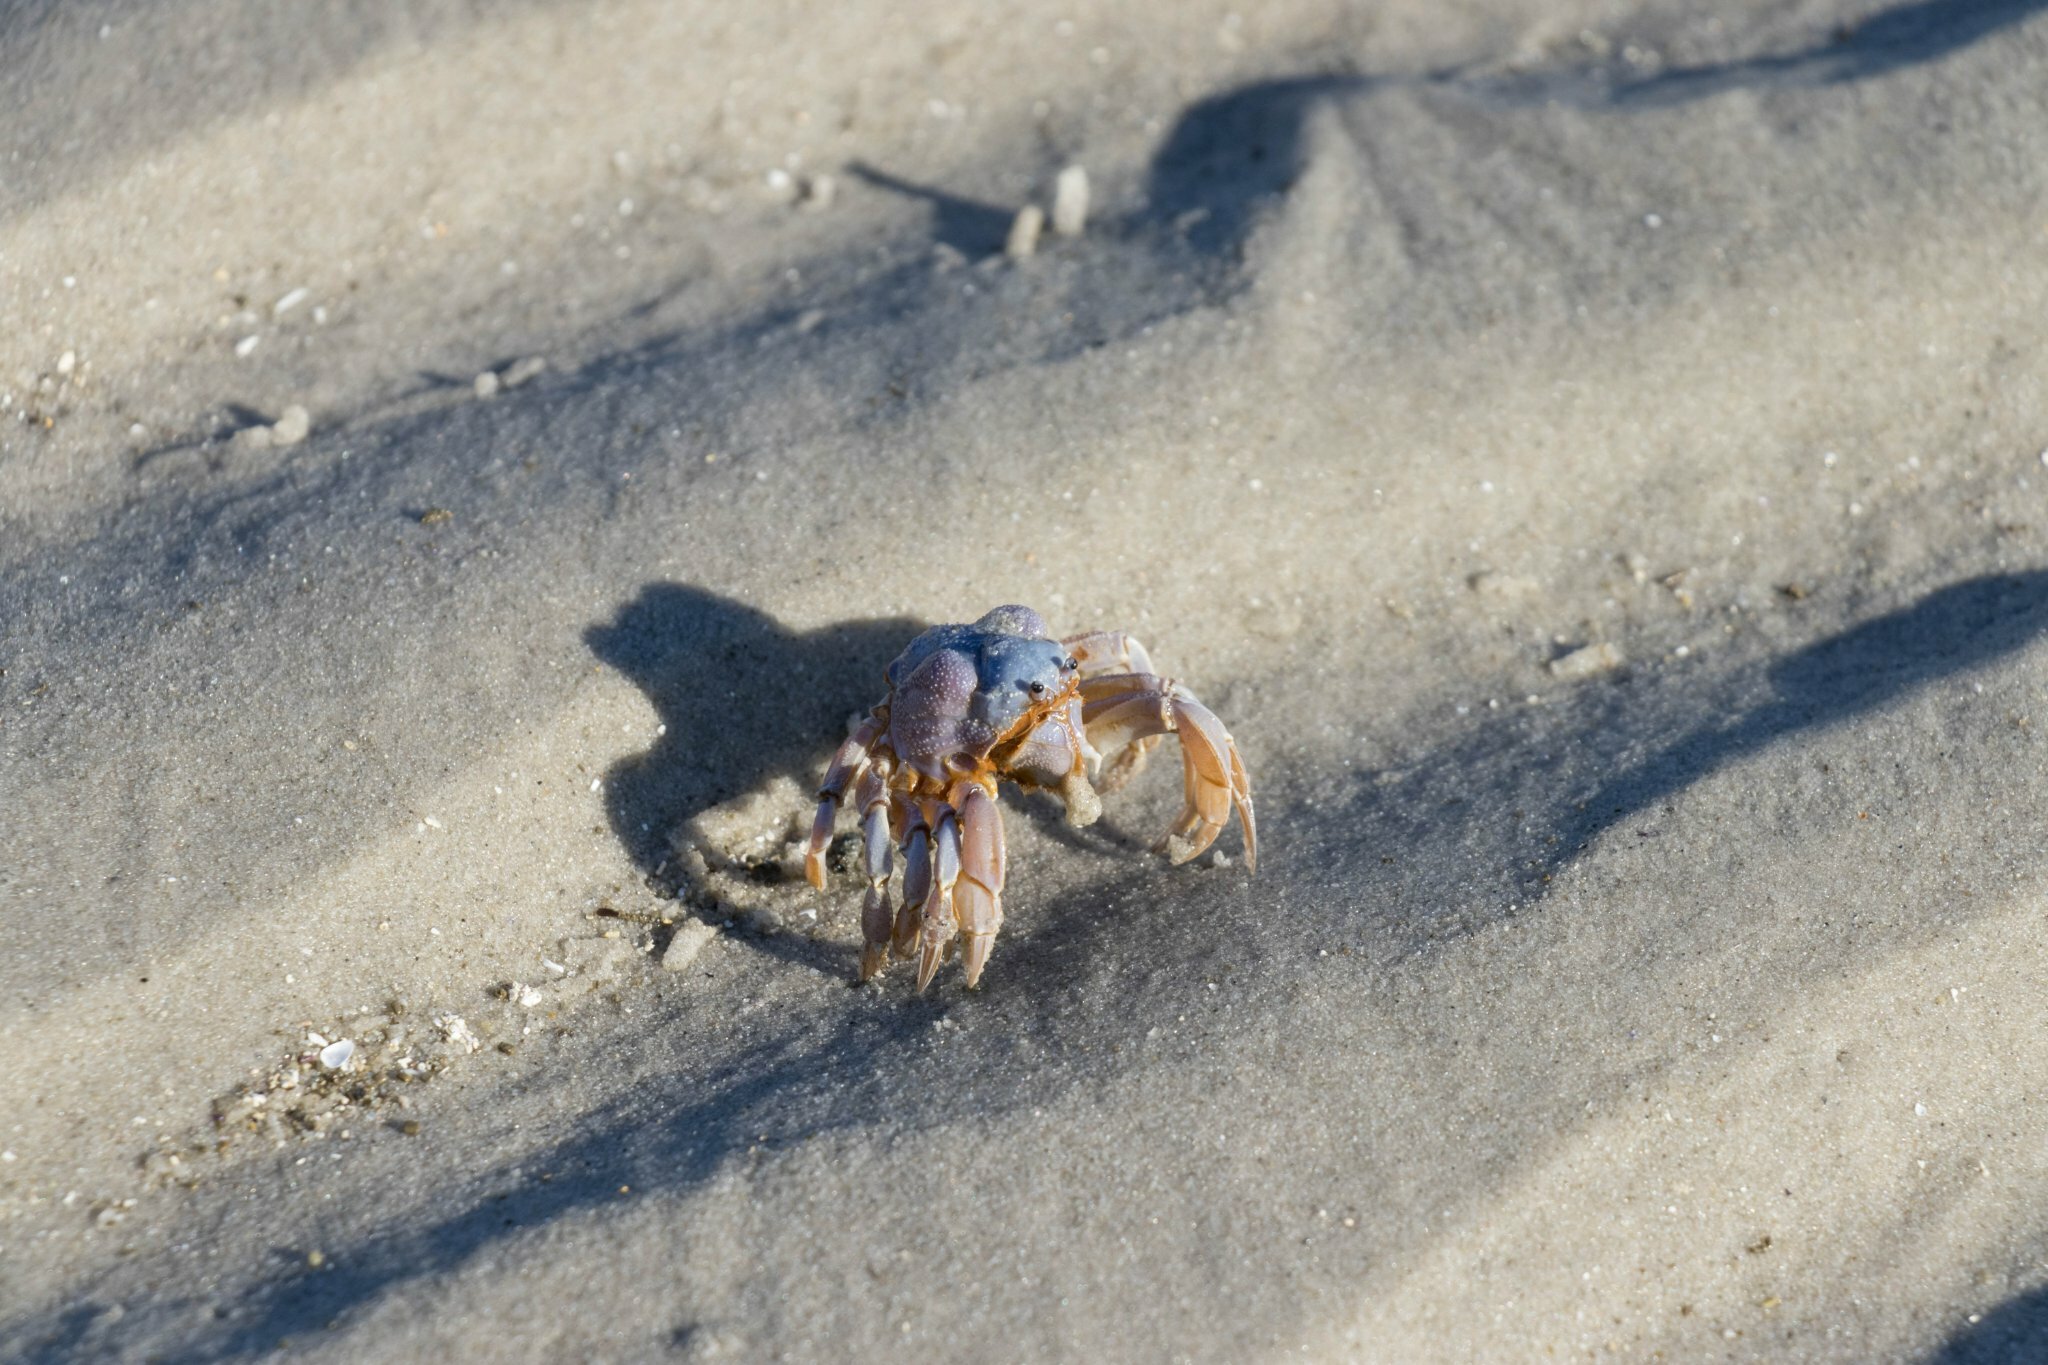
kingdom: Animalia
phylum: Arthropoda
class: Malacostraca
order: Decapoda
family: Mictyridae
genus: Mictyris
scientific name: Mictyris platycheles
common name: Dark blue soldier crab
